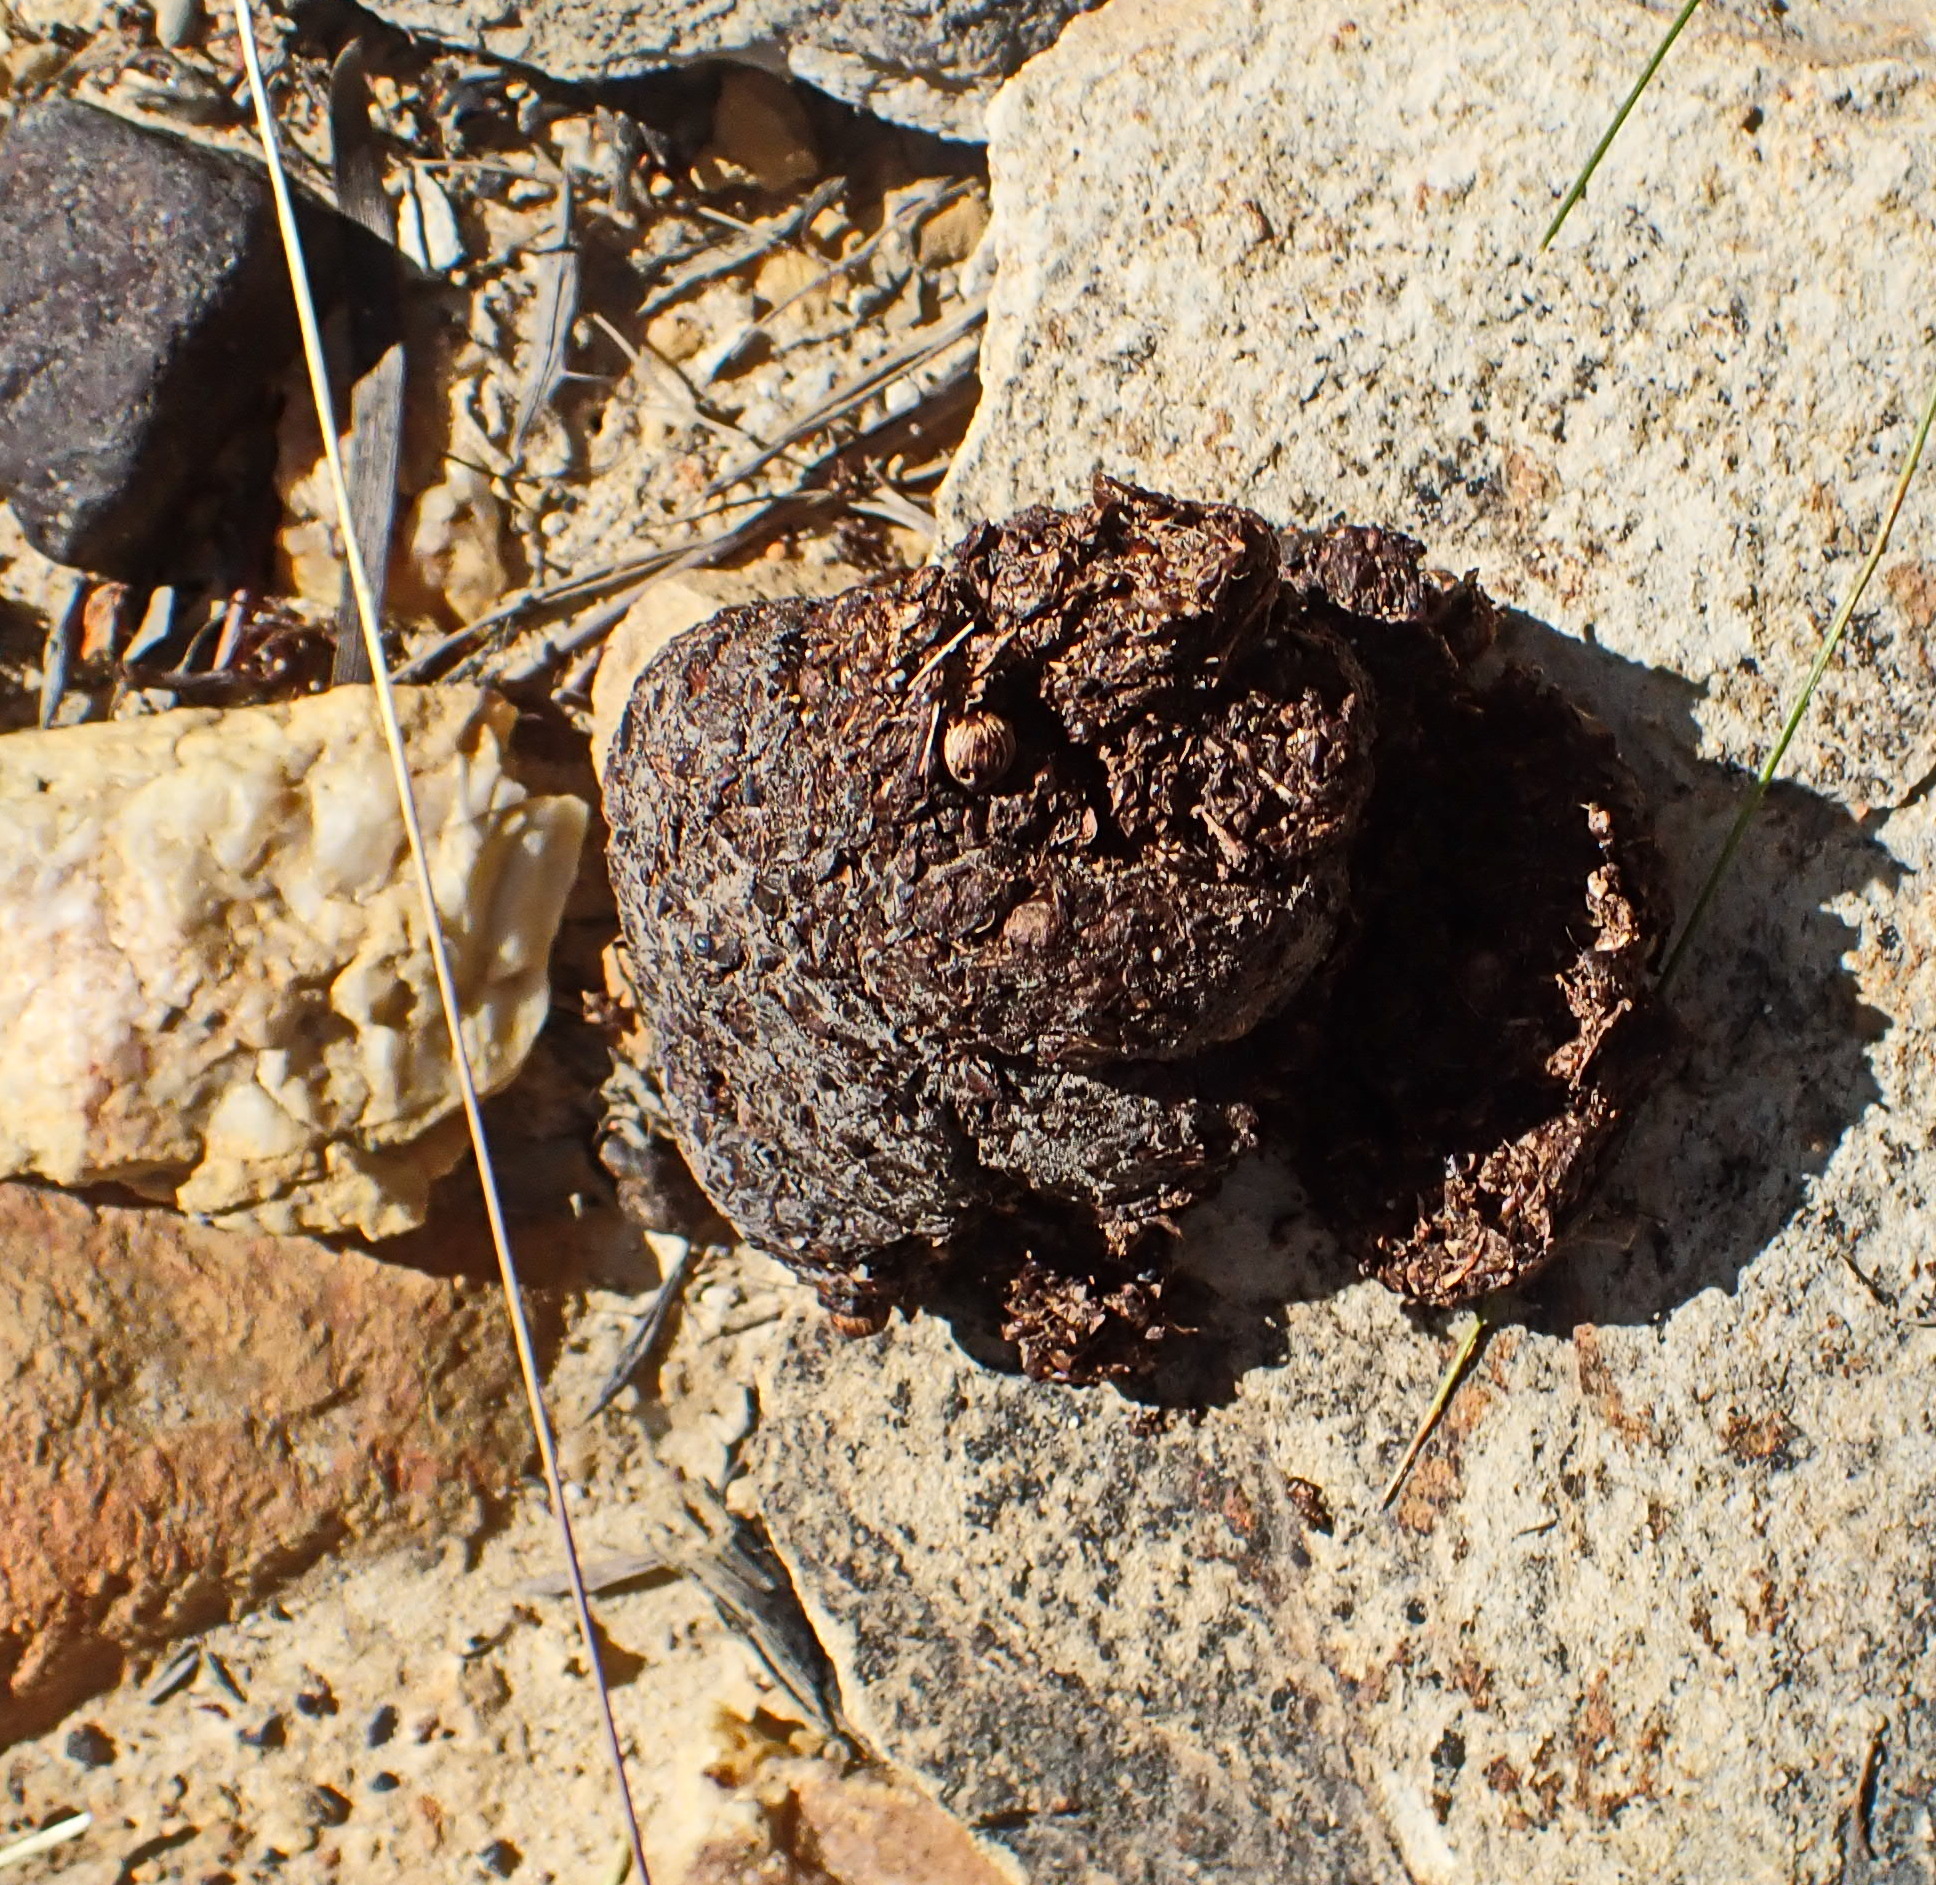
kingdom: Animalia
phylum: Chordata
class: Mammalia
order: Primates
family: Cercopithecidae
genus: Papio
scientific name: Papio ursinus
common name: Chacma baboon
